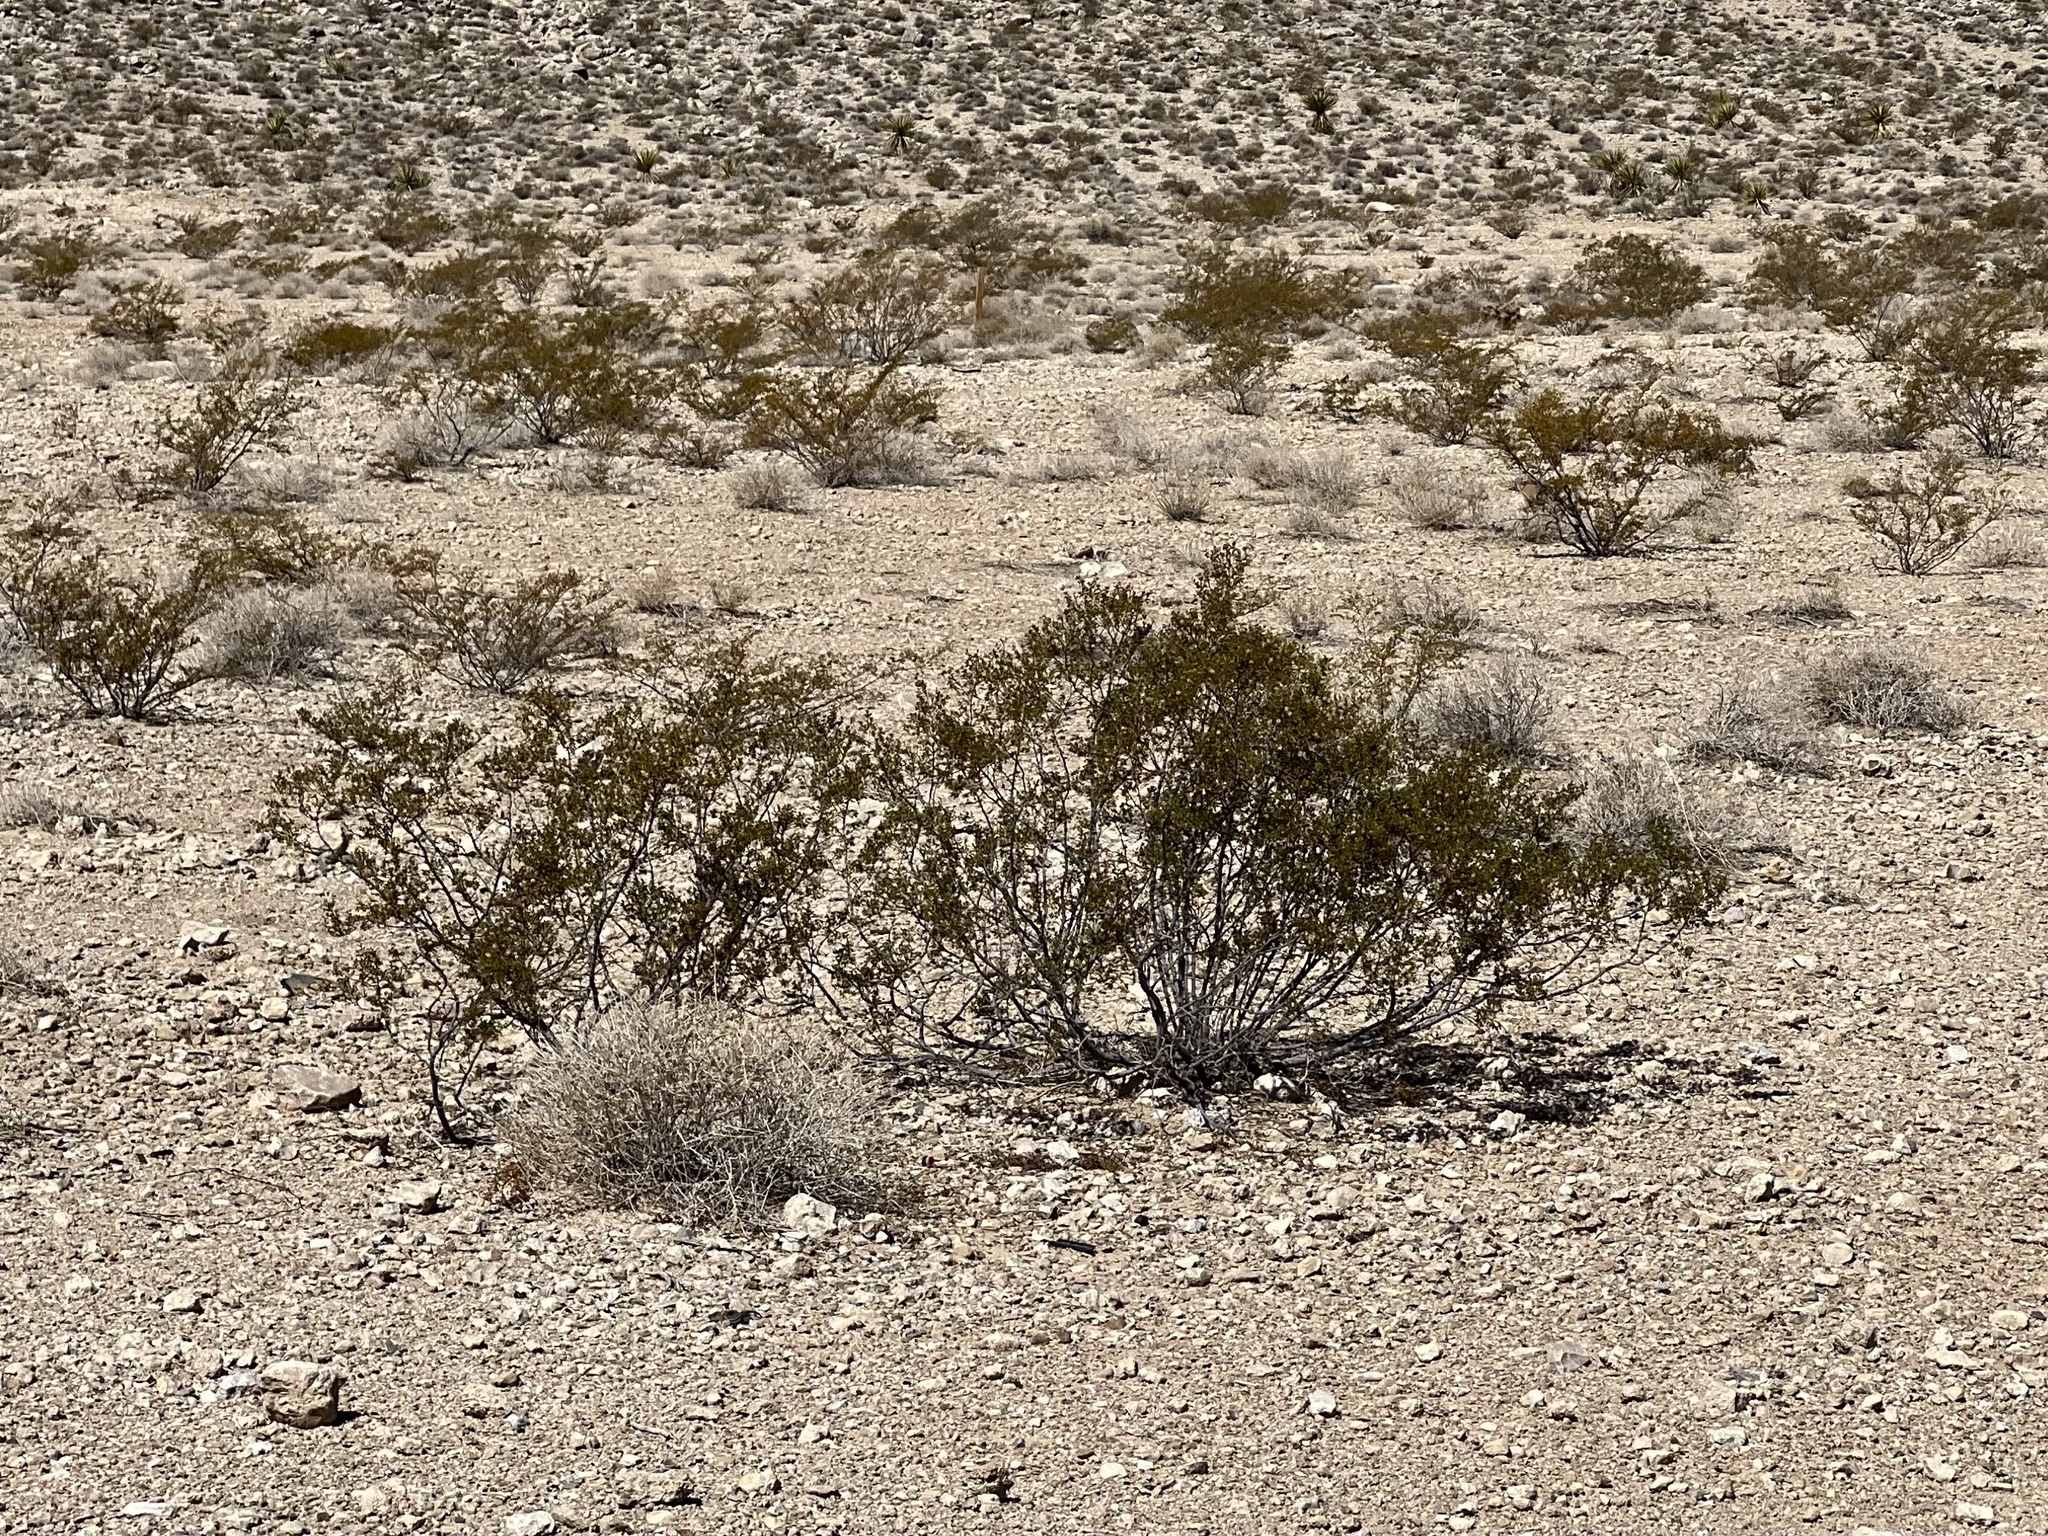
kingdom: Plantae
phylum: Tracheophyta
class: Magnoliopsida
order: Zygophyllales
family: Zygophyllaceae
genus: Larrea
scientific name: Larrea tridentata
